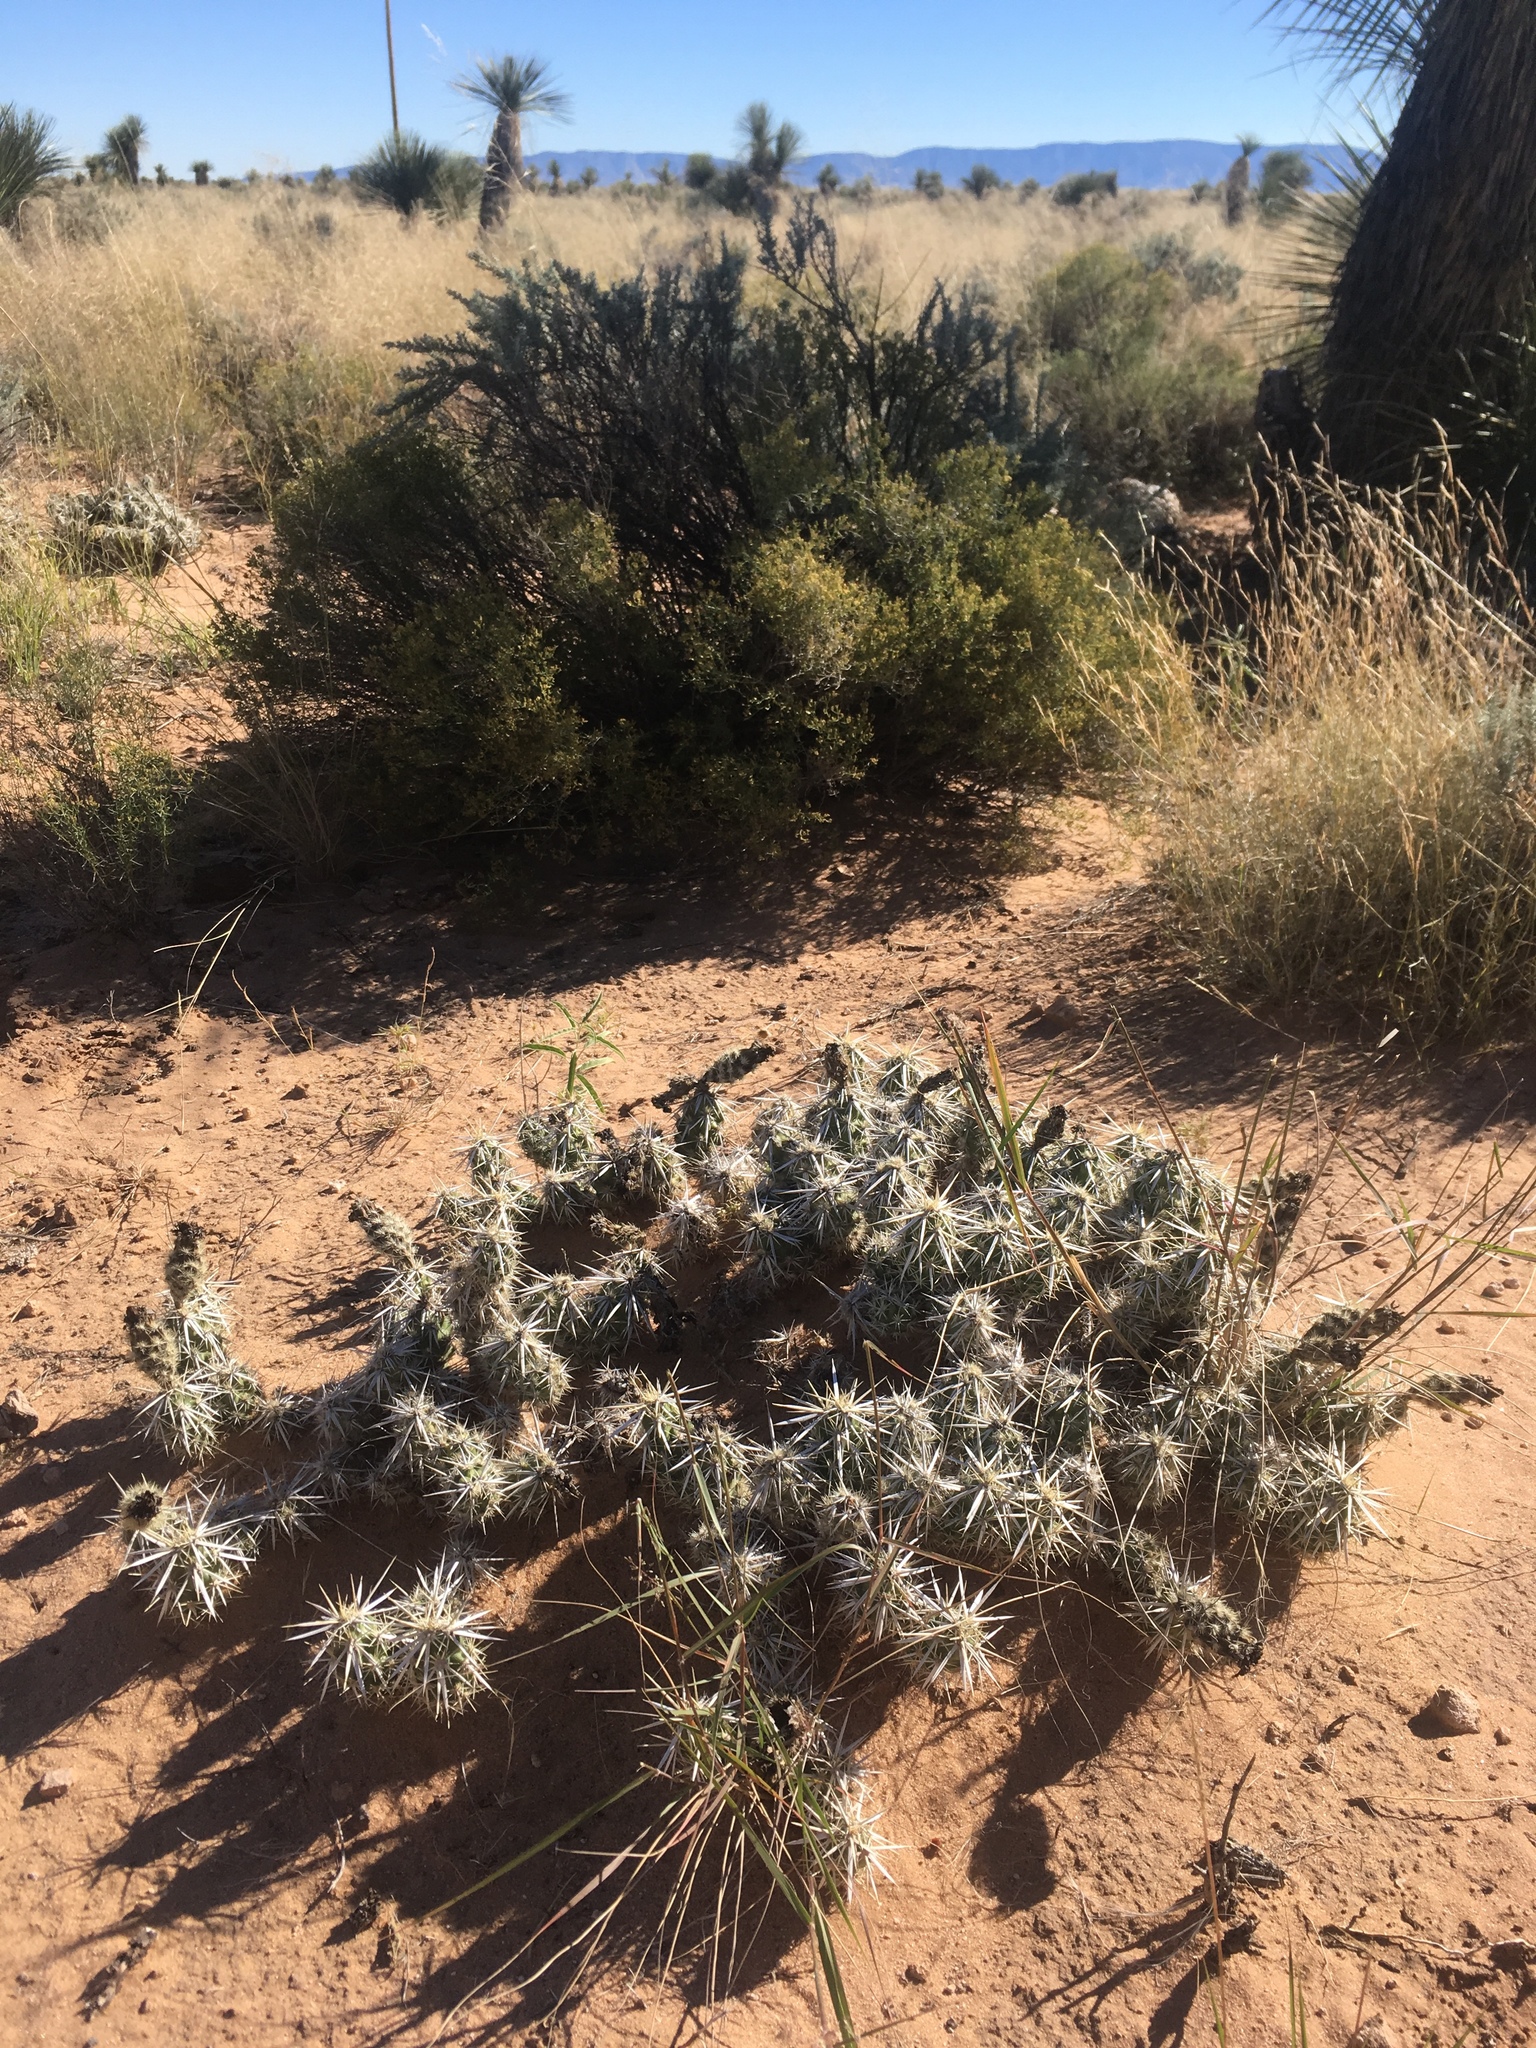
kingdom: Plantae
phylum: Tracheophyta
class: Magnoliopsida
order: Caryophyllales
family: Cactaceae
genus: Grusonia
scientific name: Grusonia clavata
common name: Club cholla
